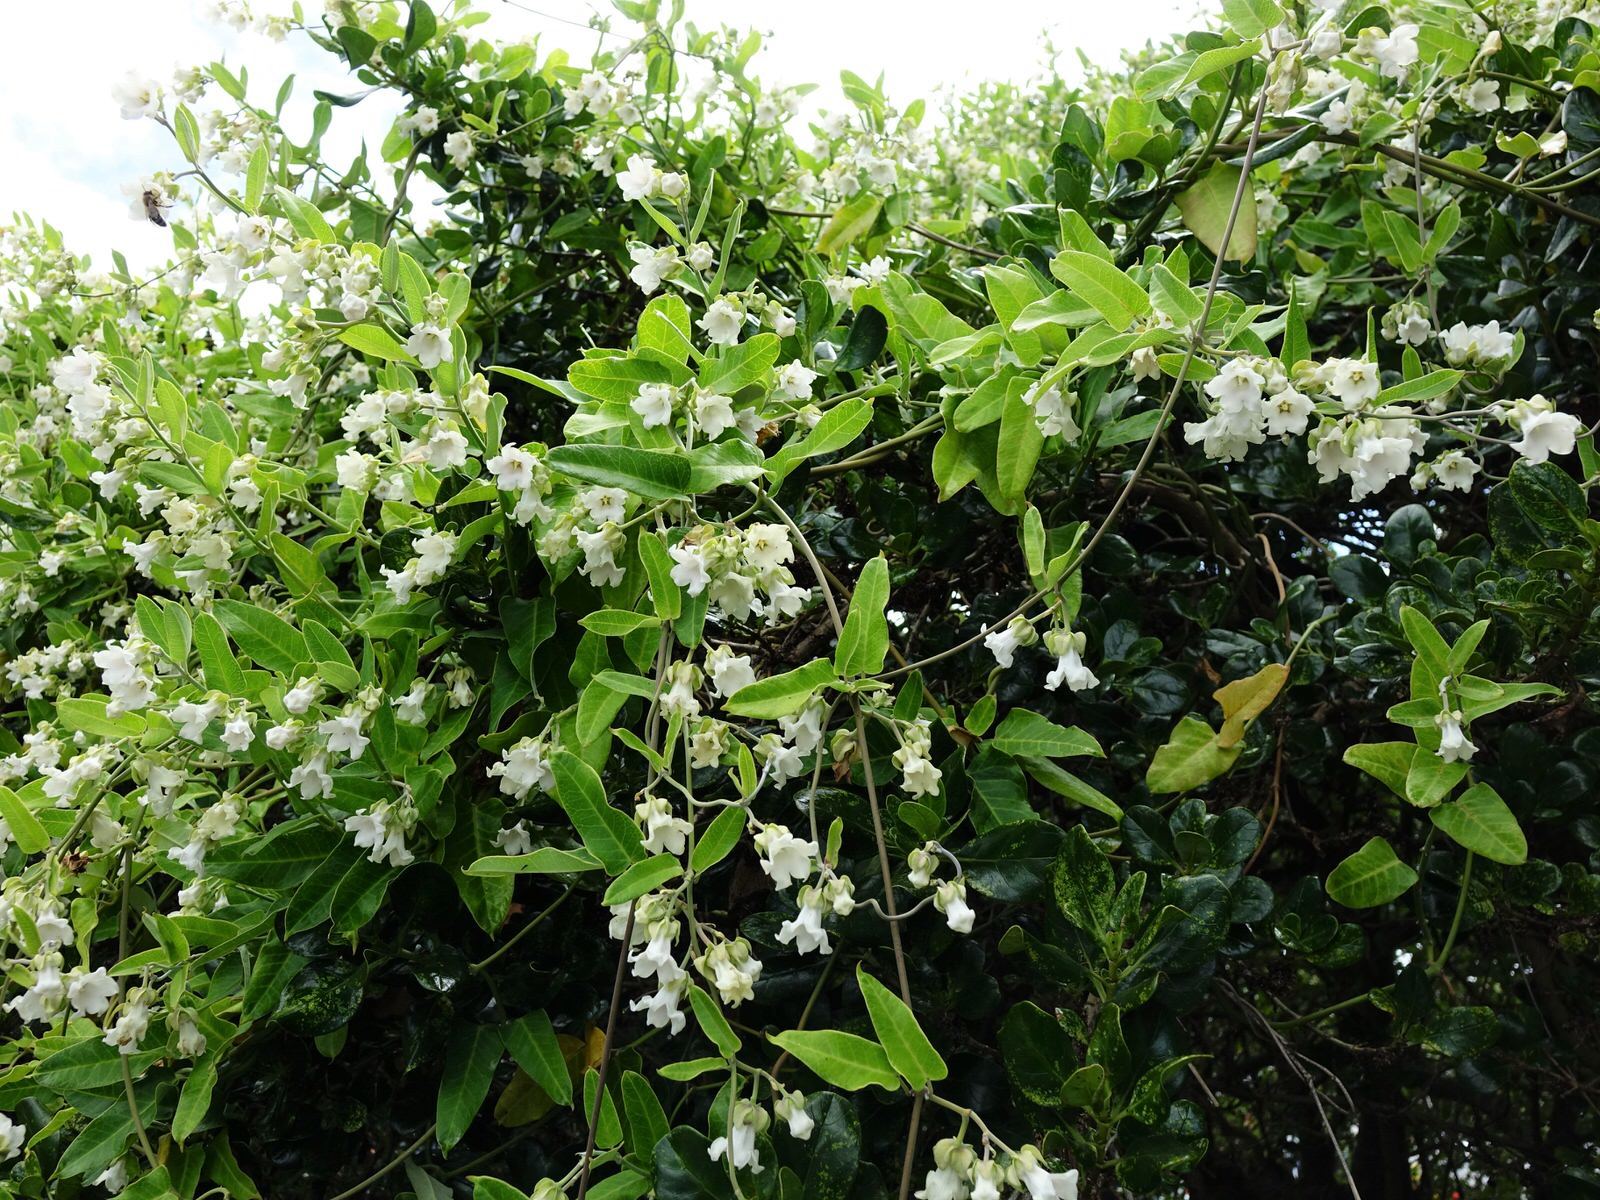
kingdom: Plantae
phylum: Tracheophyta
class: Magnoliopsida
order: Gentianales
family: Apocynaceae
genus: Araujia
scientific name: Araujia sericifera
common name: White bladderflower
